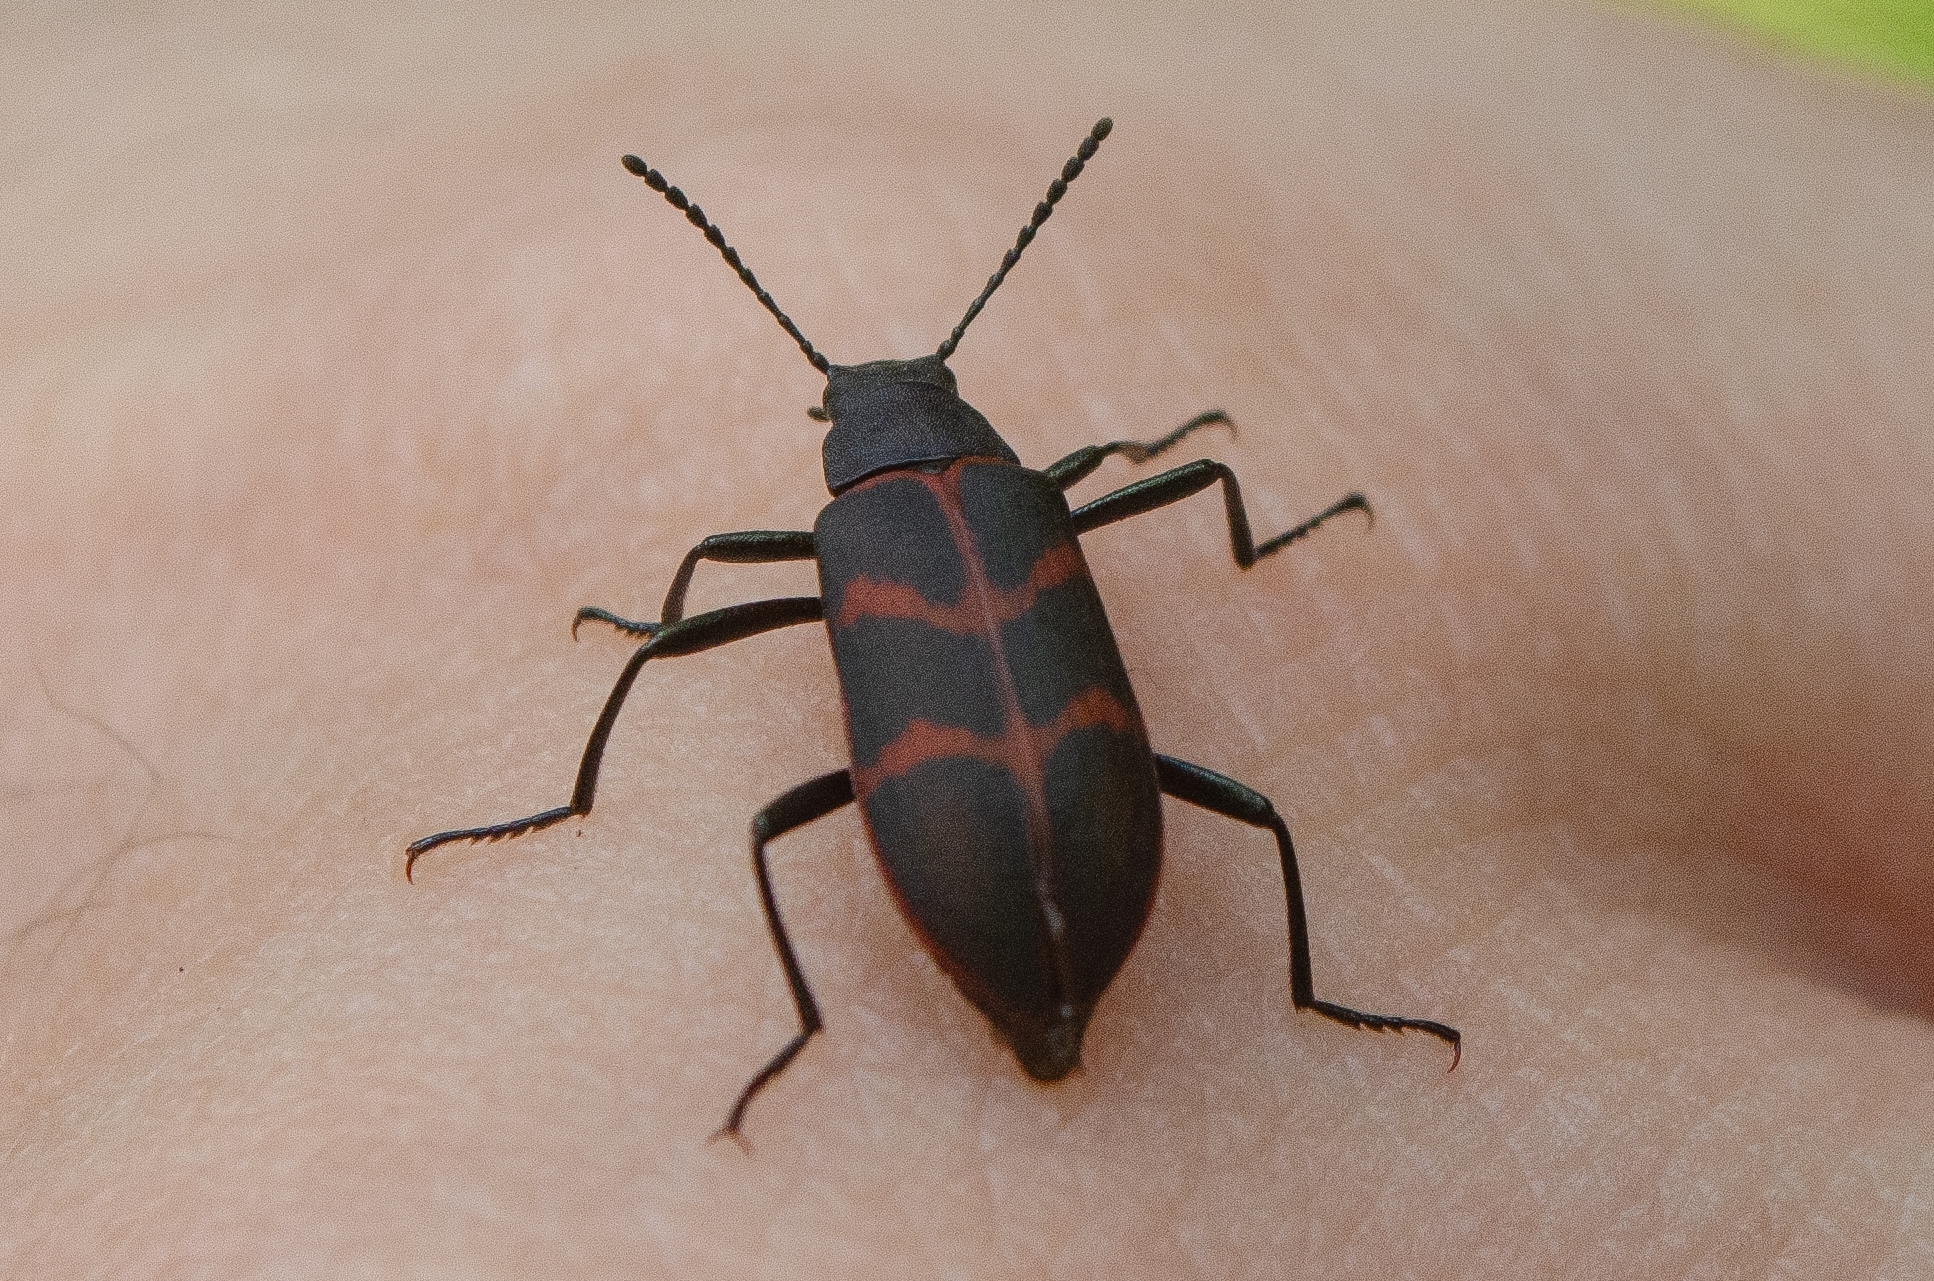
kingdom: Animalia
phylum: Arthropoda
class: Insecta
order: Coleoptera
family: Tenebrionidae
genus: Poecilesthus
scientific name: Poecilesthus
